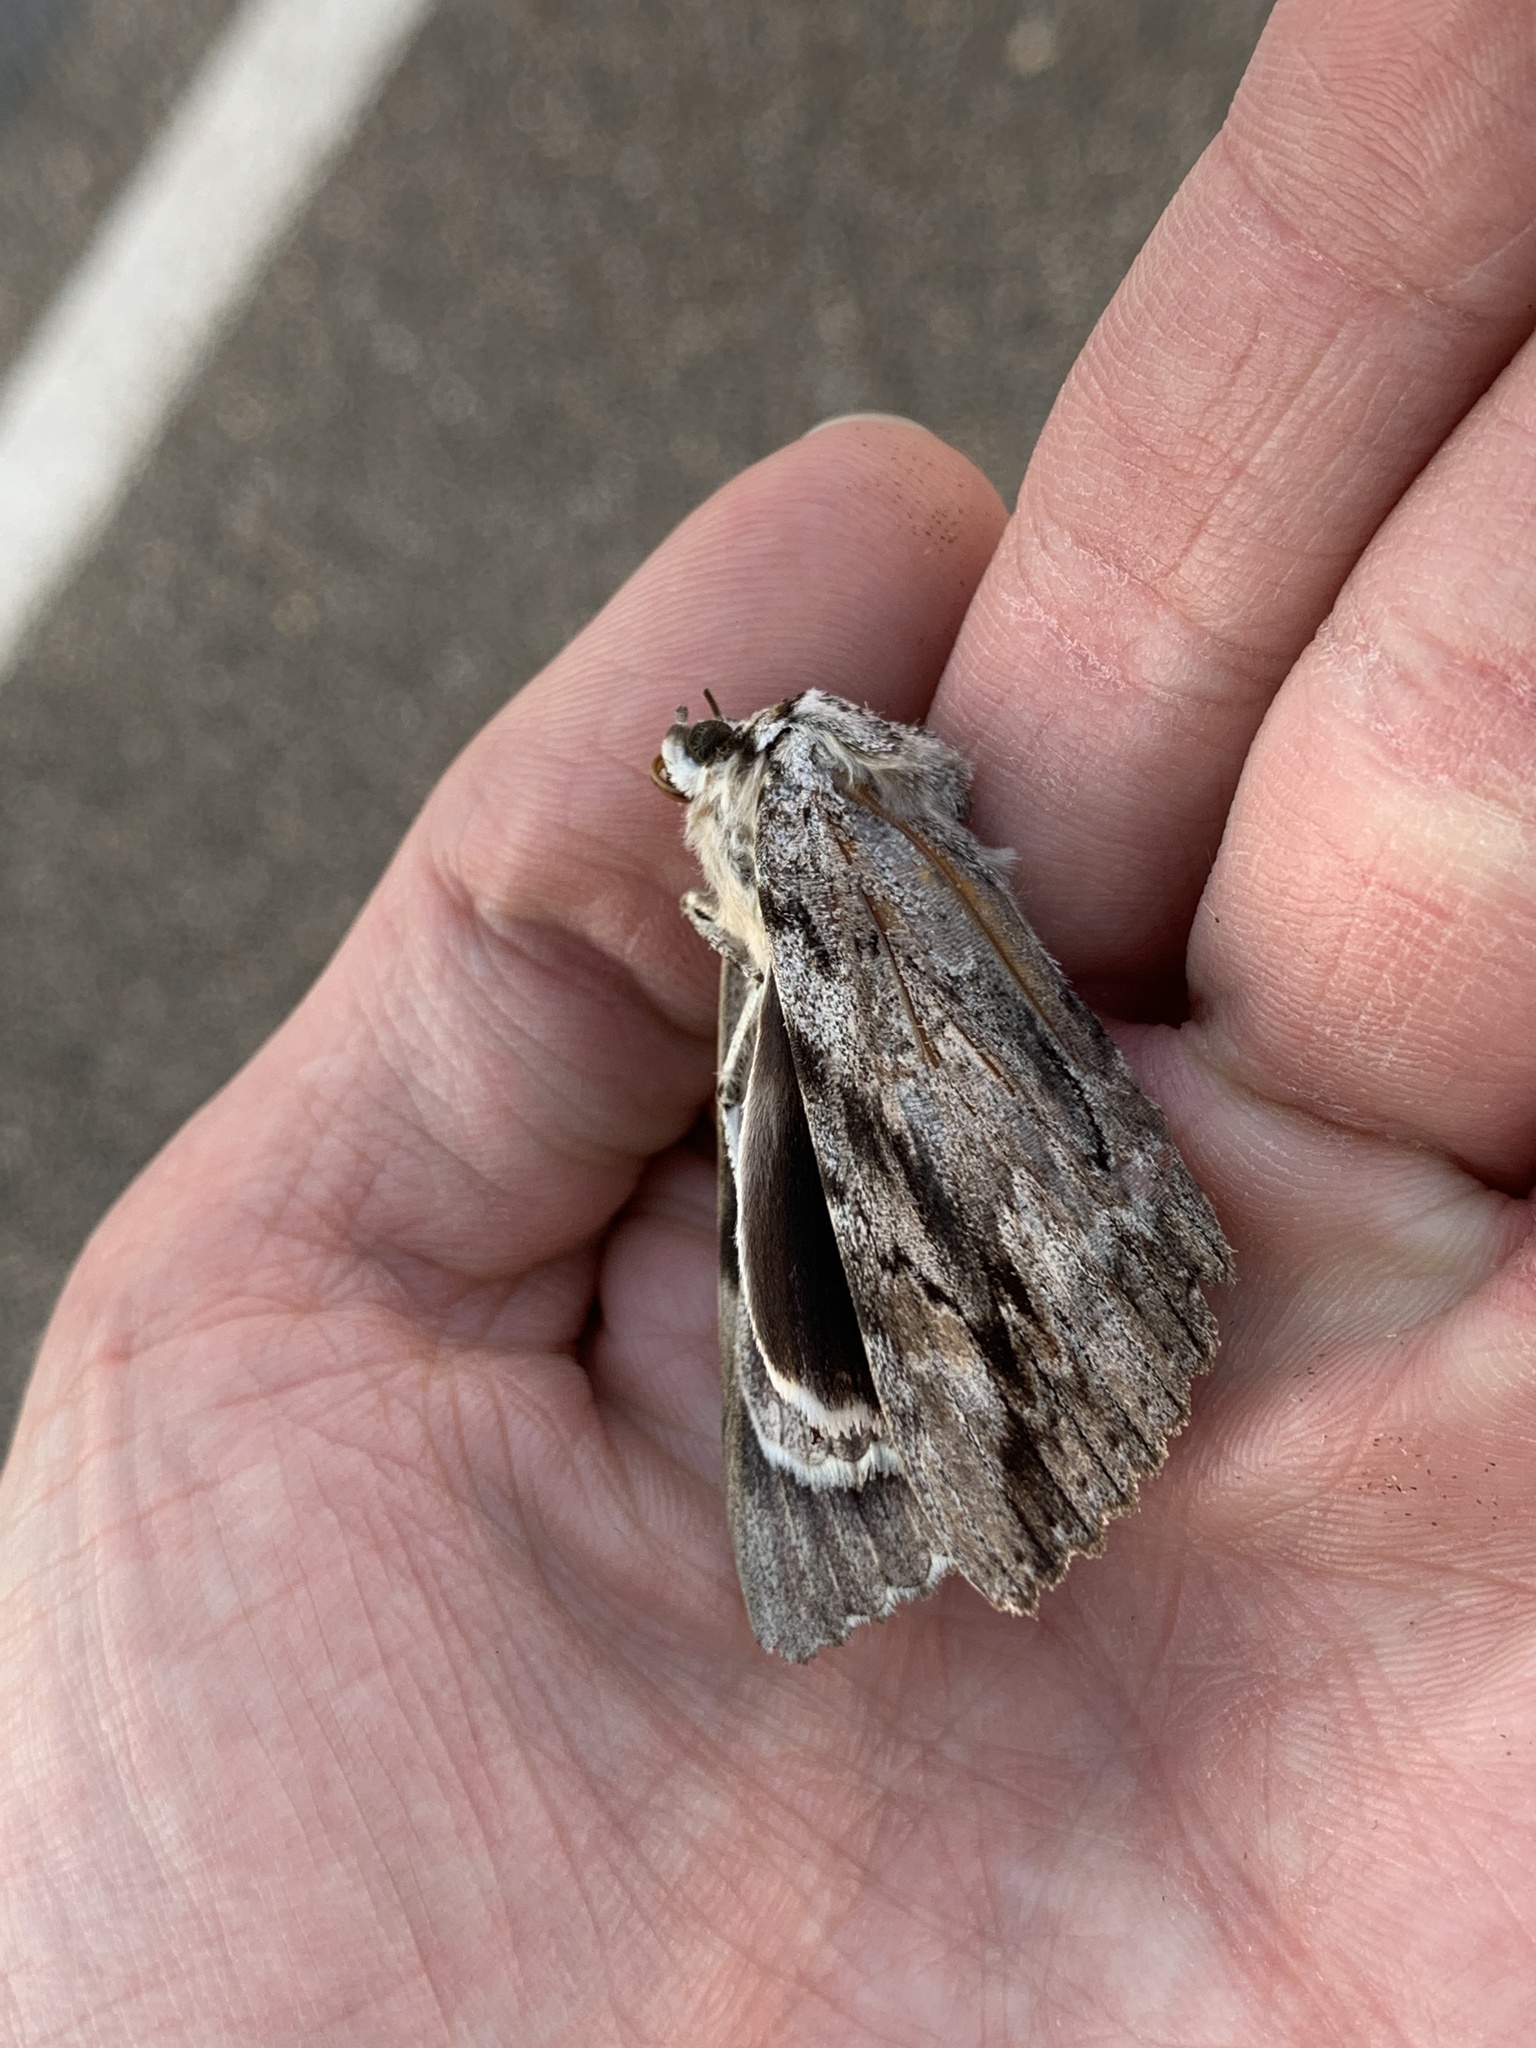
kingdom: Animalia
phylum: Arthropoda
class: Insecta
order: Lepidoptera
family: Erebidae
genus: Catocala
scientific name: Catocala maestosa
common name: Sad underwing
